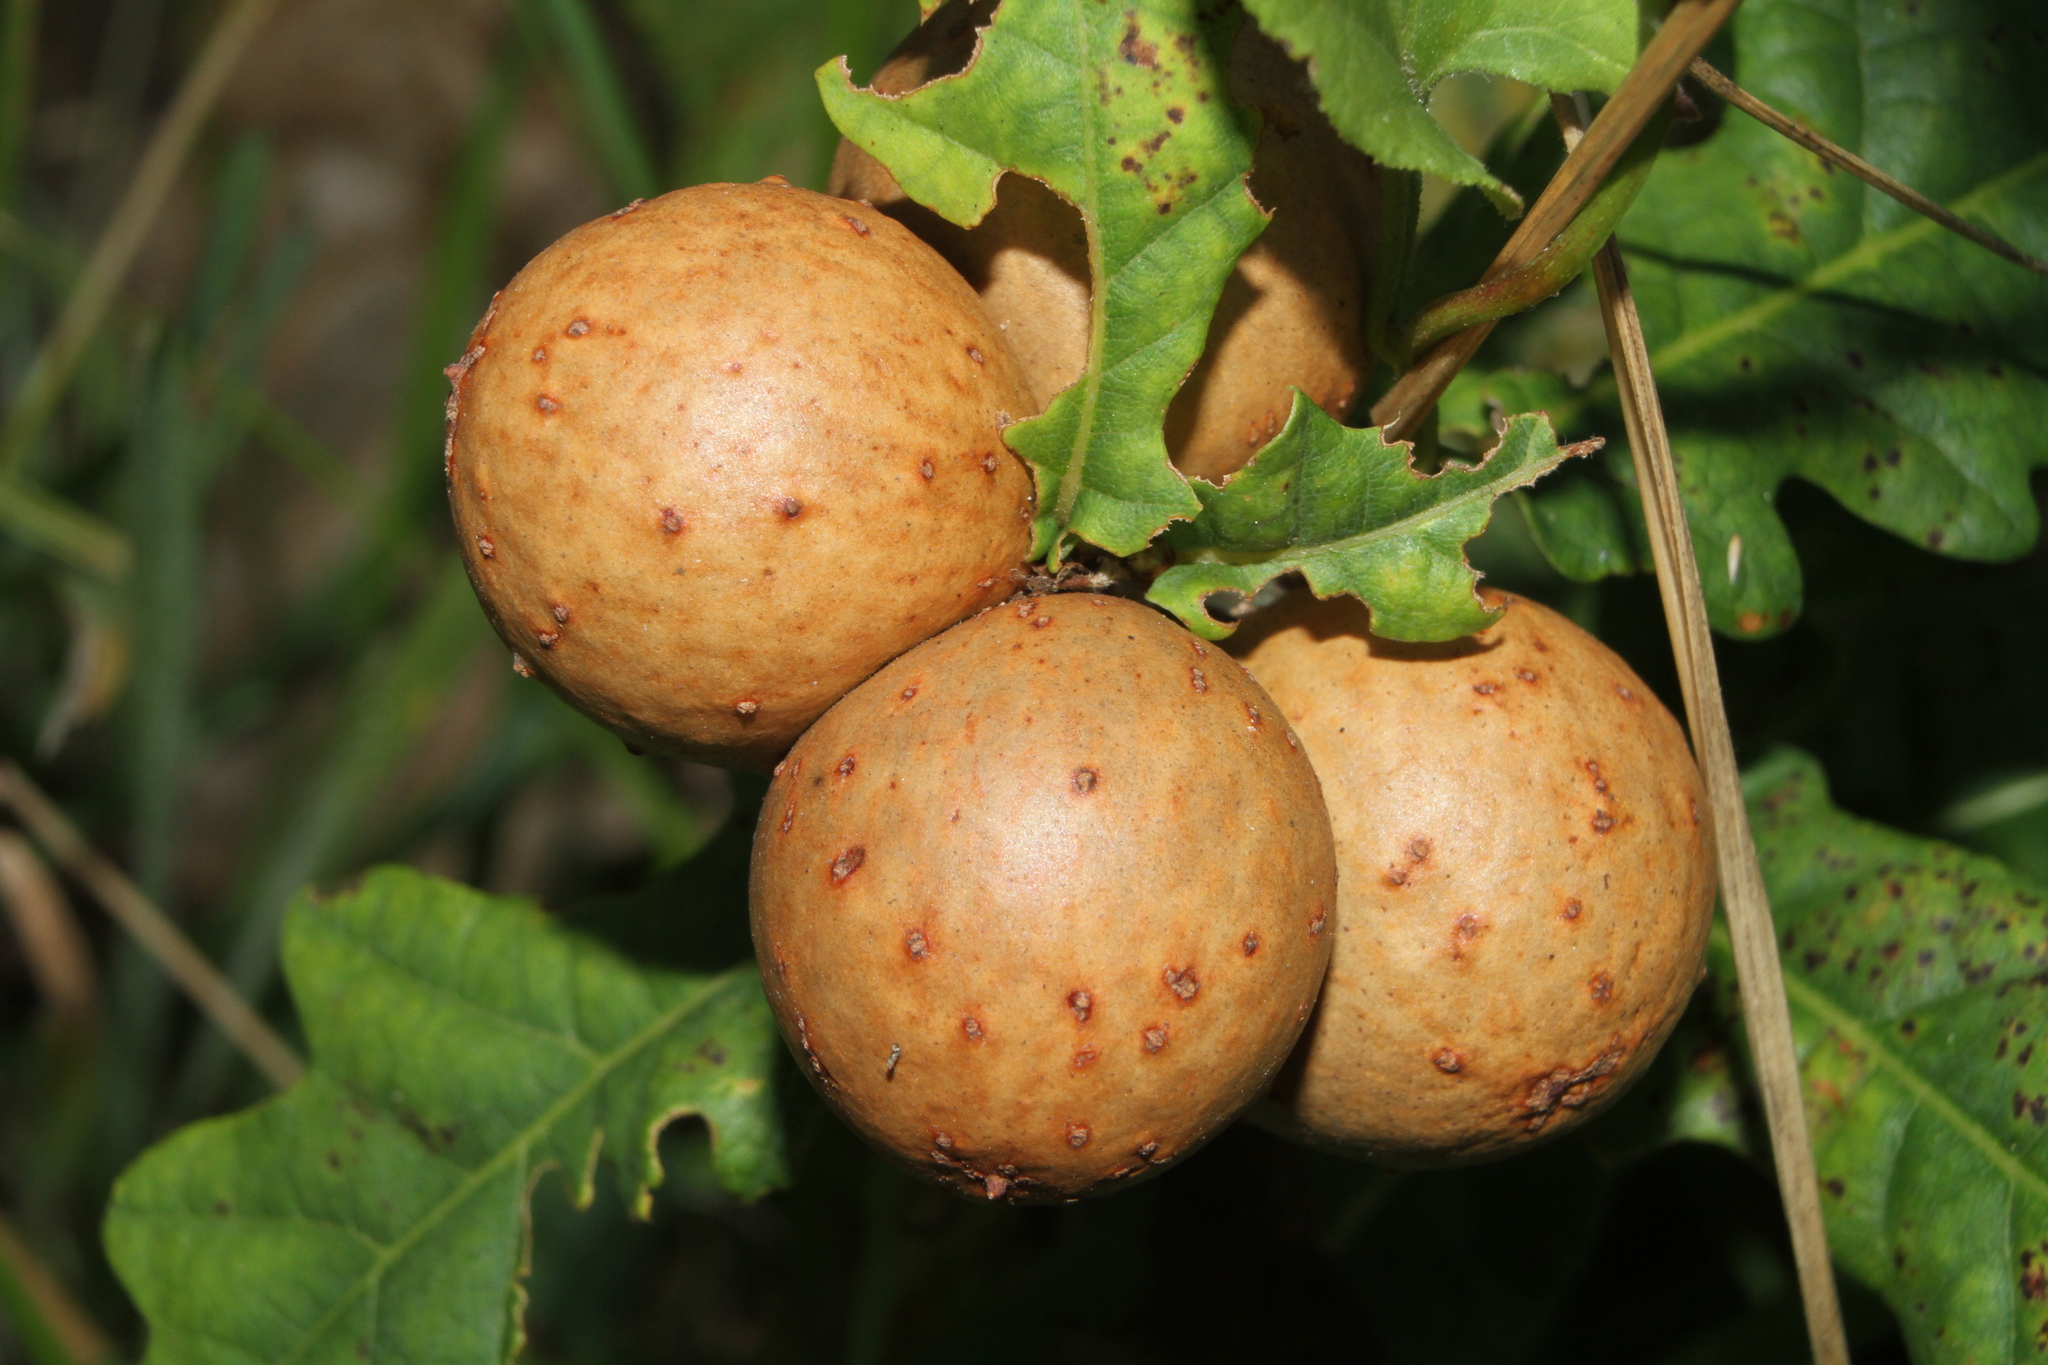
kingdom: Animalia
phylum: Arthropoda
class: Insecta
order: Hymenoptera
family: Cynipidae
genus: Andricus
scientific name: Andricus kollari
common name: Marble gall
